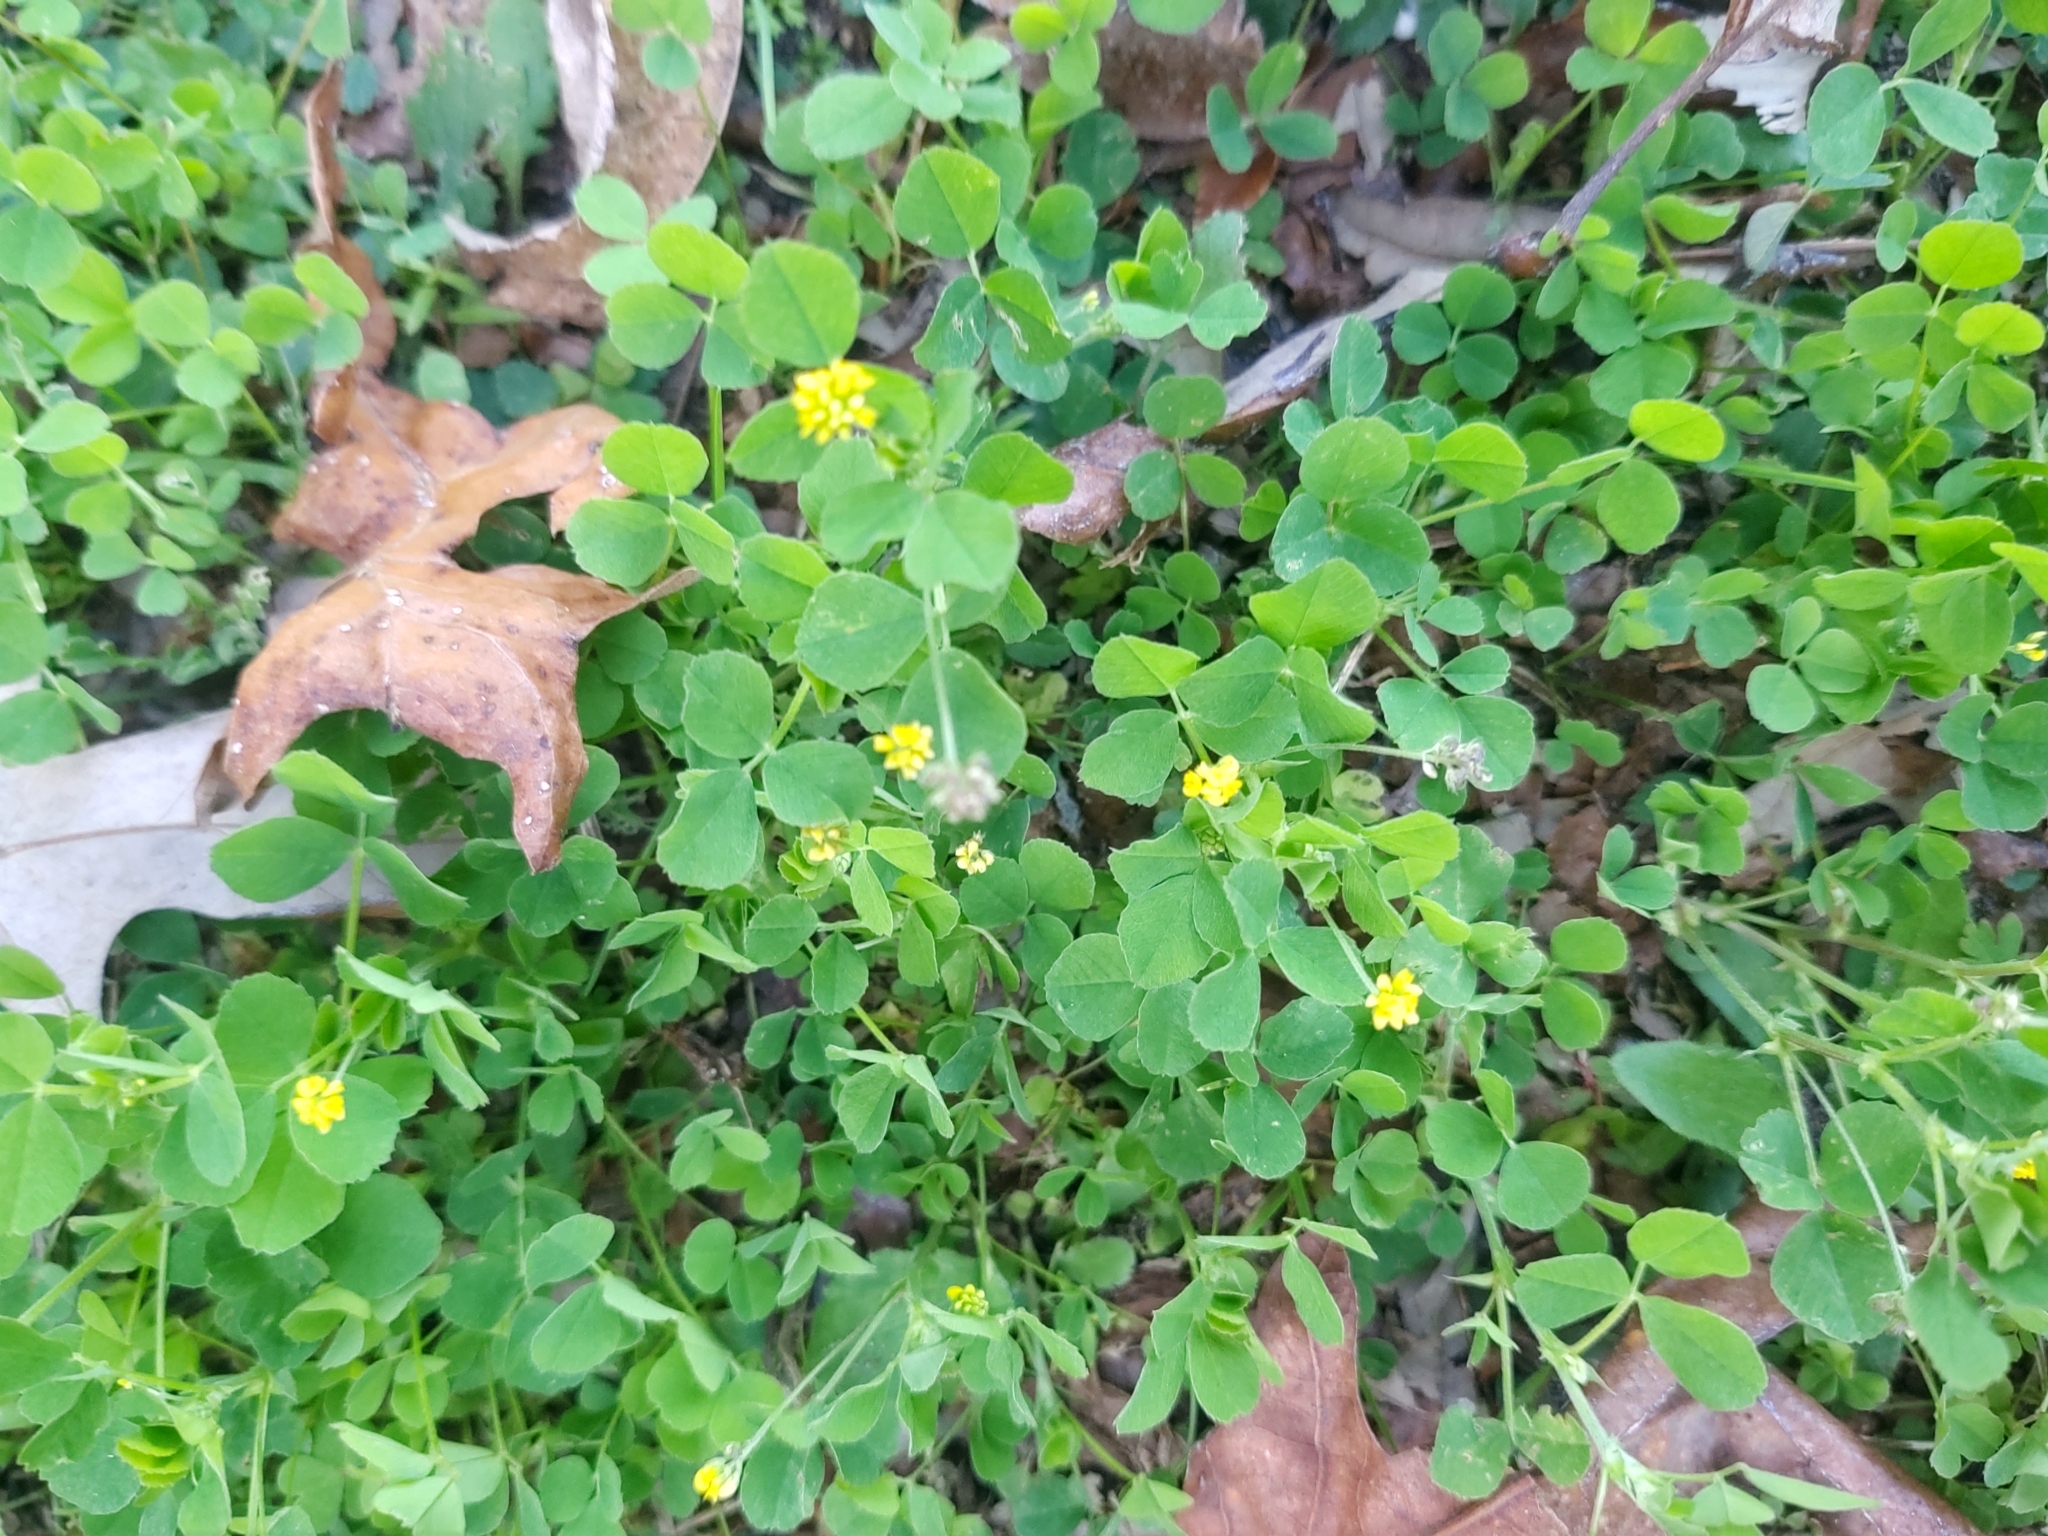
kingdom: Plantae
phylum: Tracheophyta
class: Magnoliopsida
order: Fabales
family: Fabaceae
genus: Medicago
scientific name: Medicago lupulina
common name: Black medick
